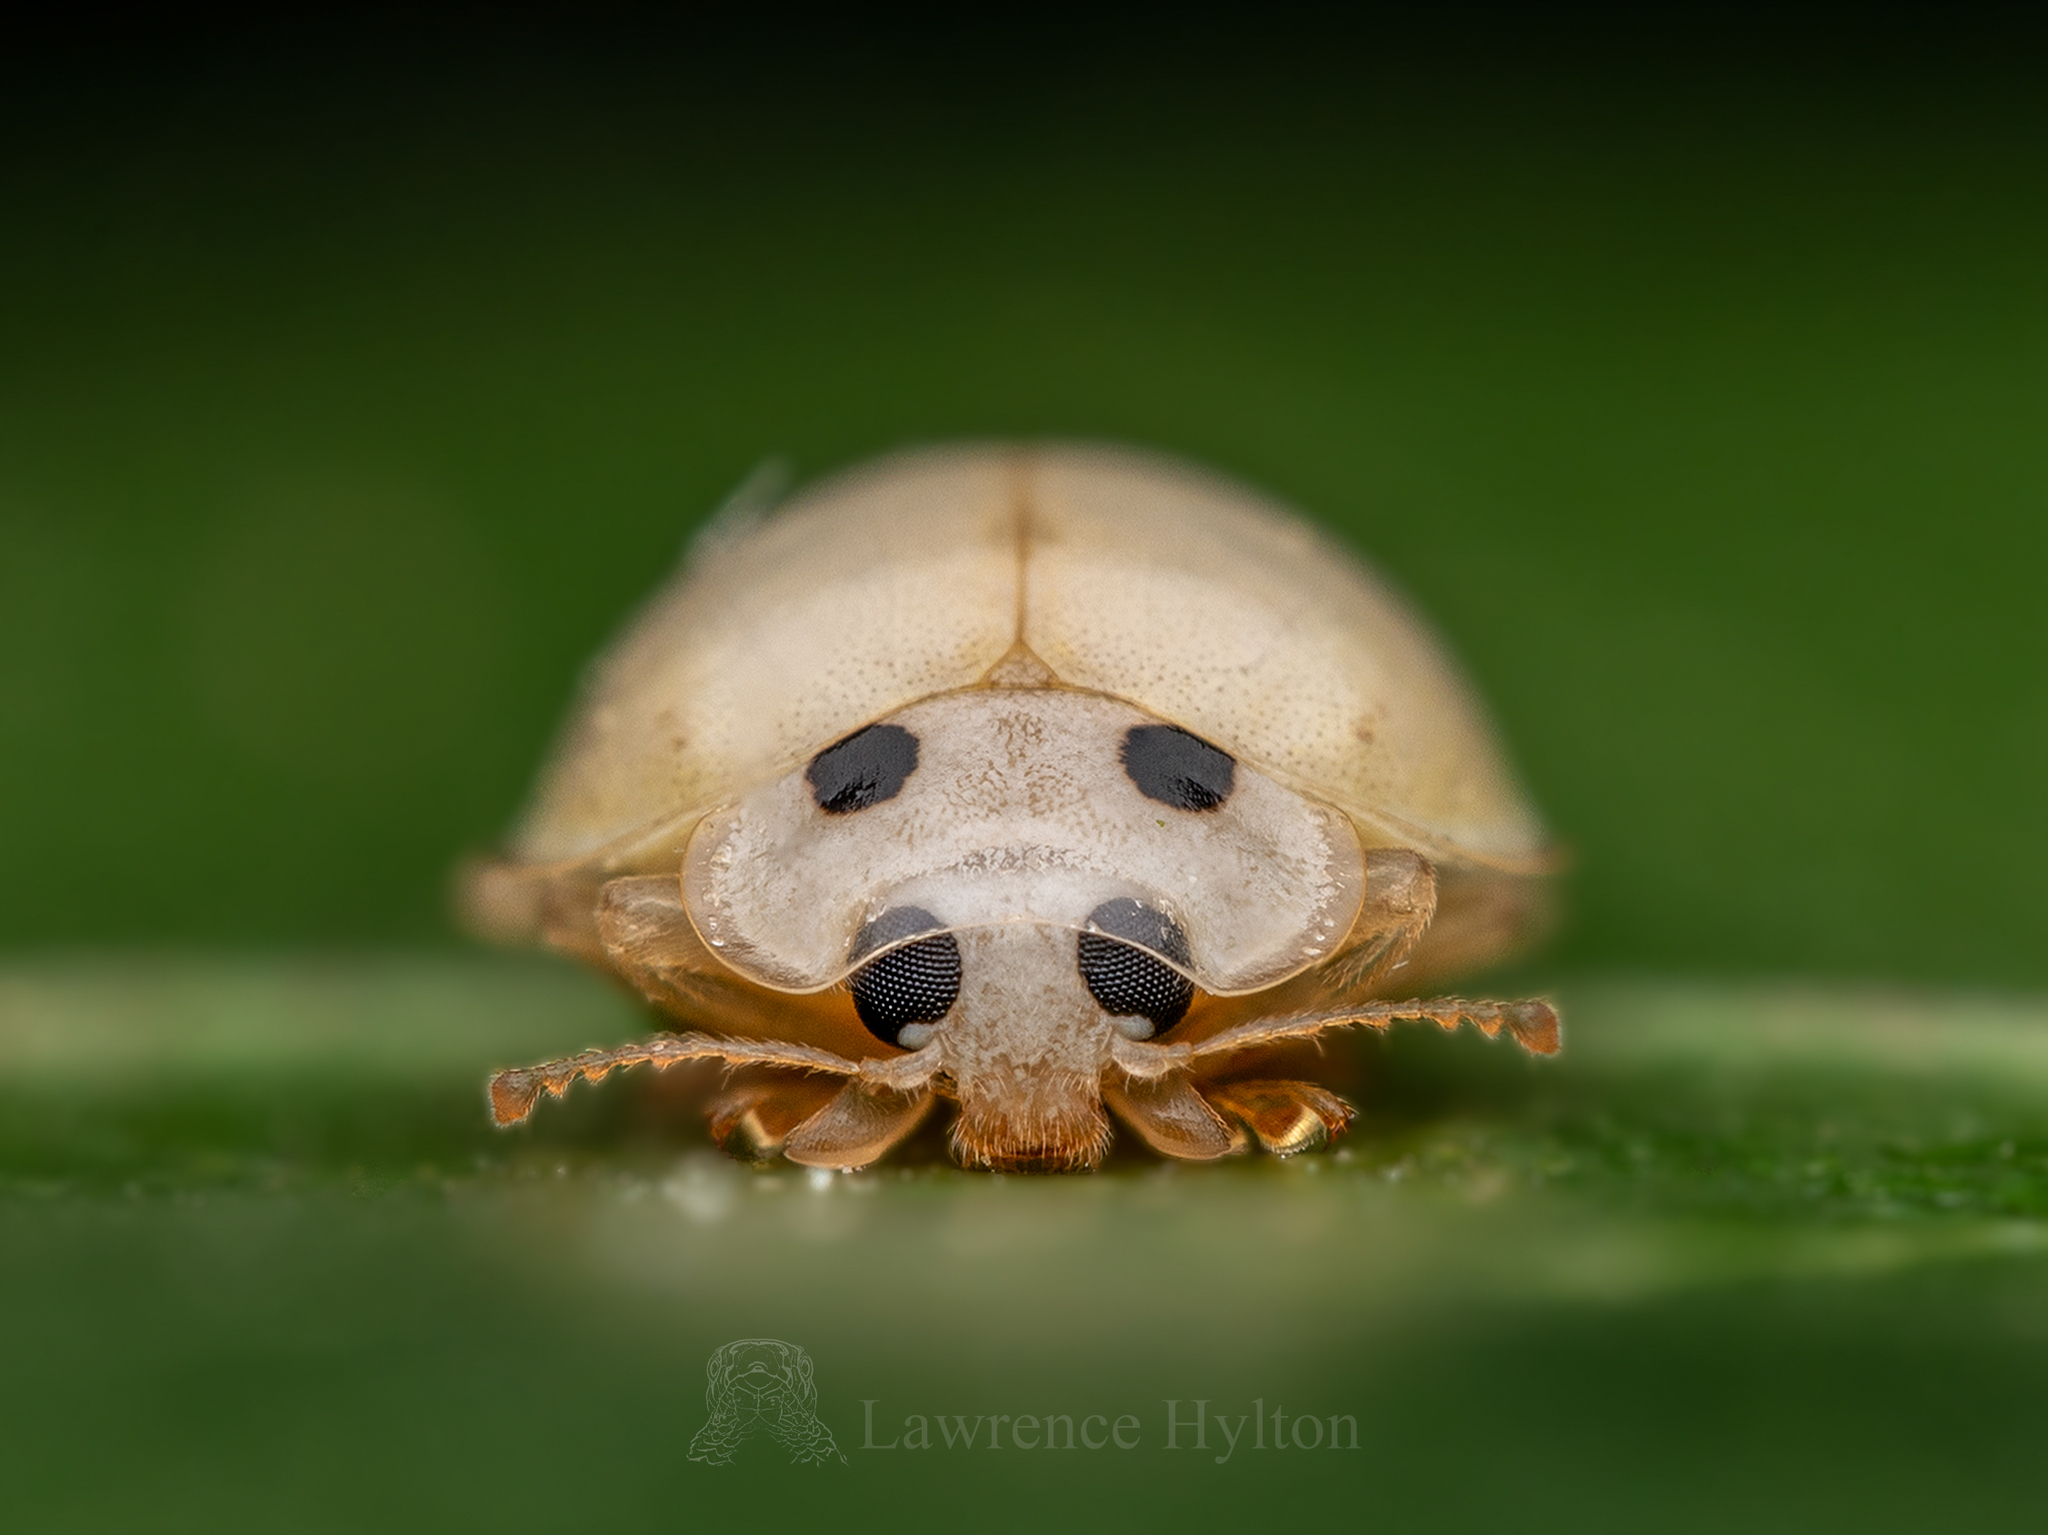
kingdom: Animalia
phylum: Arthropoda
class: Insecta
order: Coleoptera
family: Coccinellidae
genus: Illeis
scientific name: Illeis confusa
